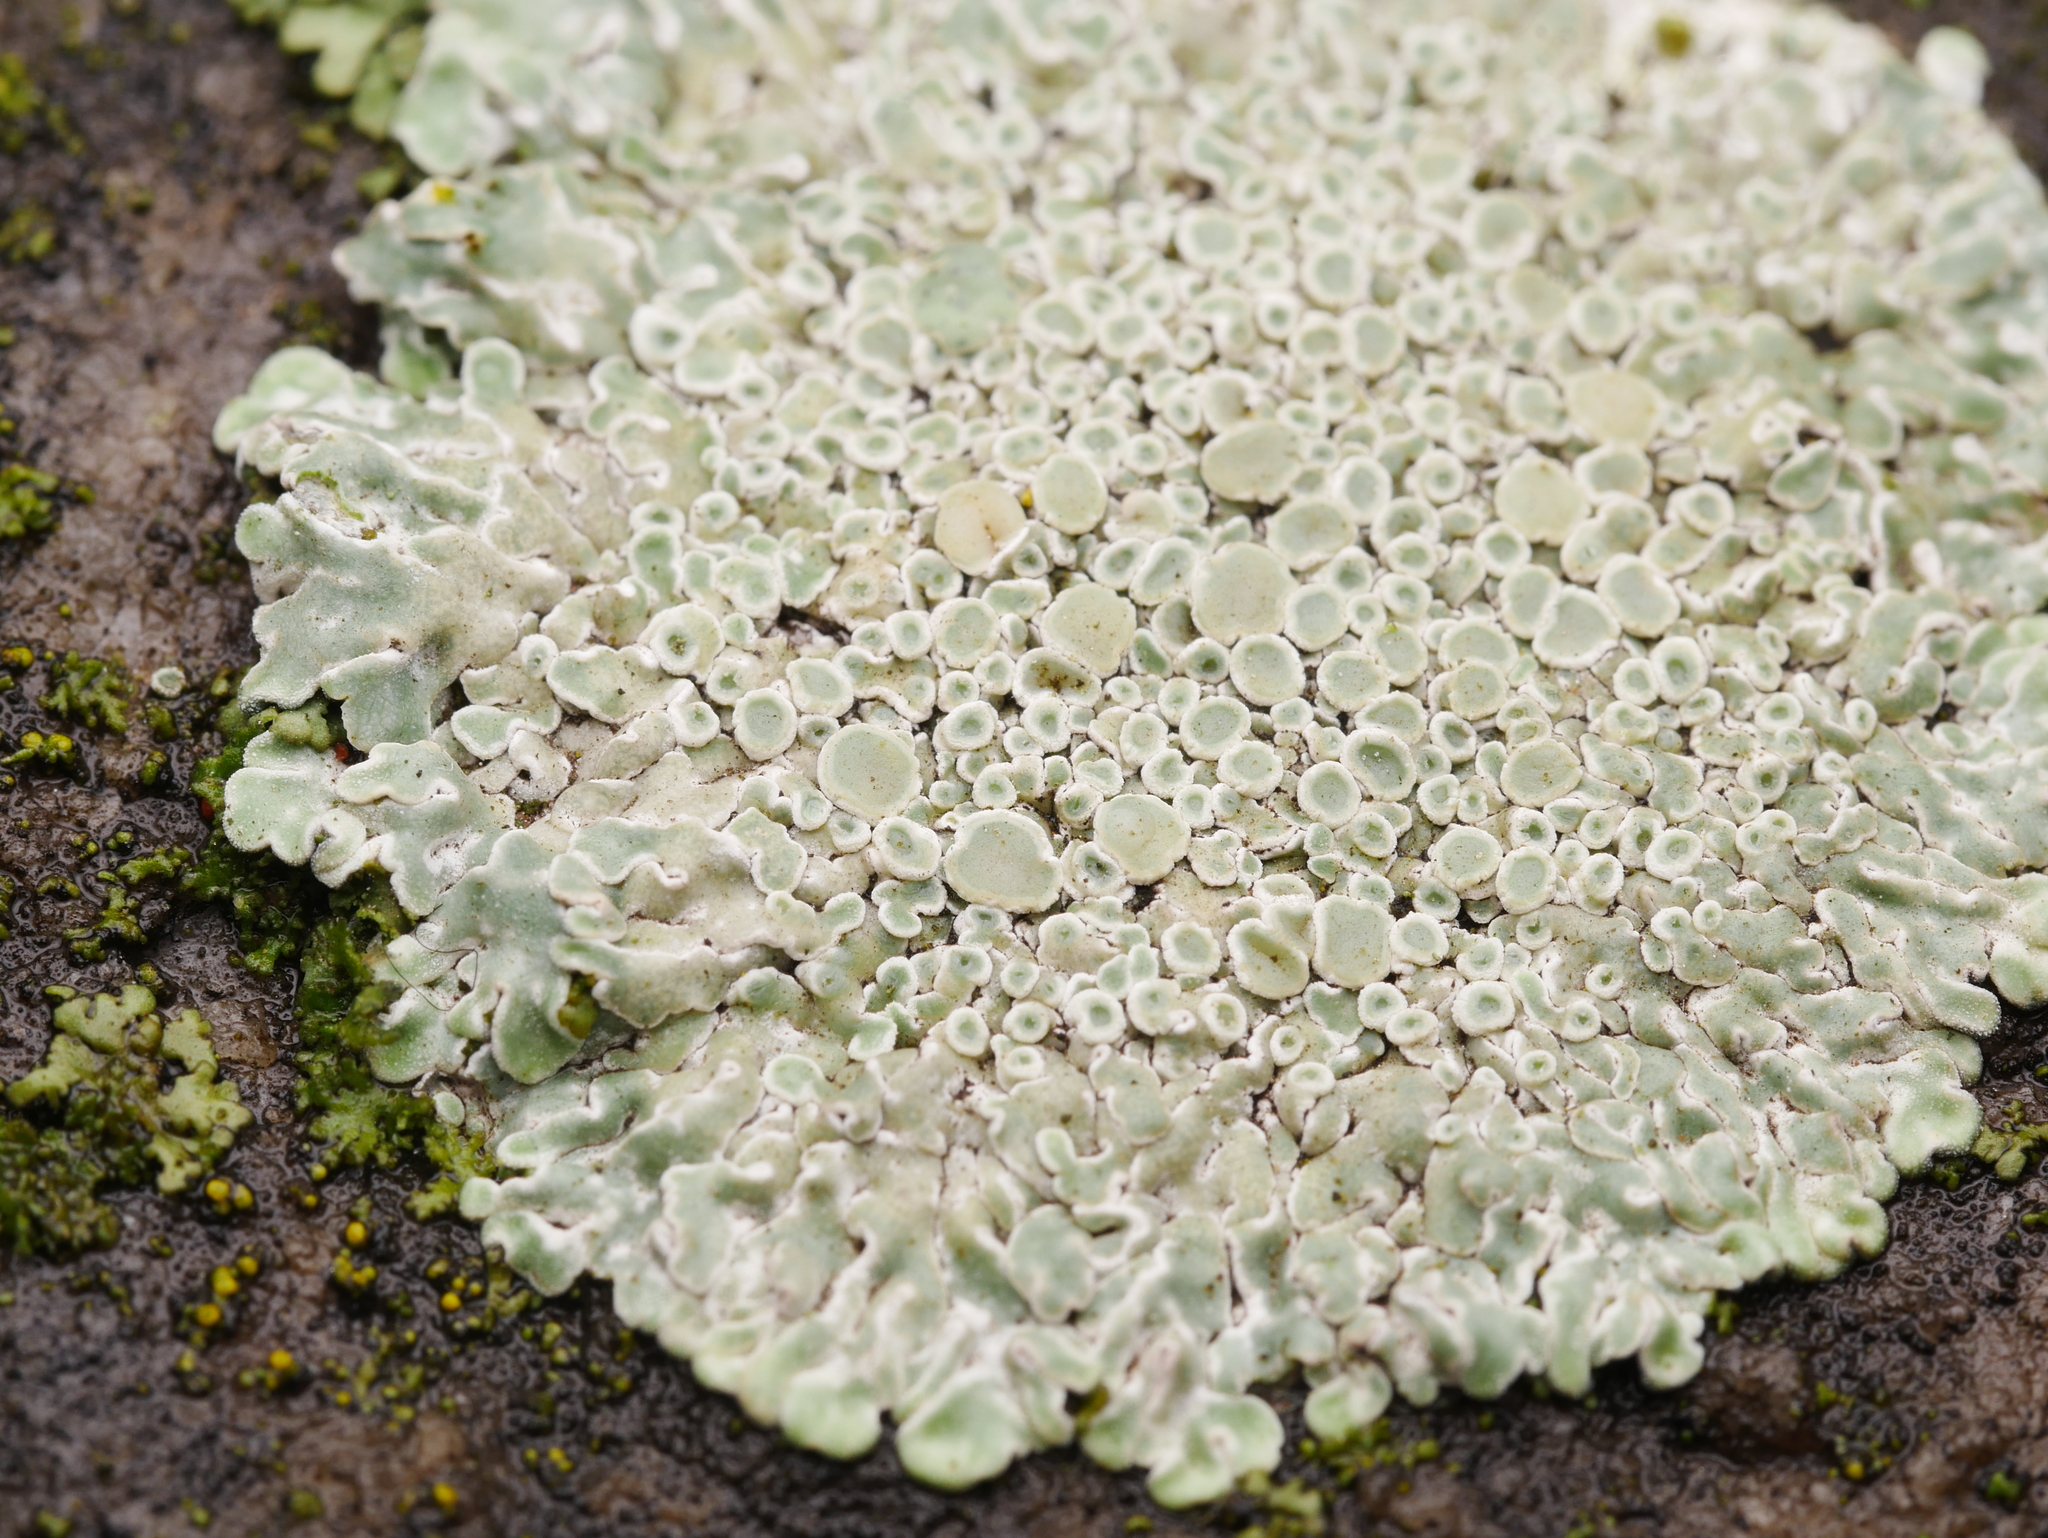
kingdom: Fungi
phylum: Ascomycota
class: Lecanoromycetes
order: Lecanorales
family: Lecanoraceae
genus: Protoparmeliopsis
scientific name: Protoparmeliopsis muralis
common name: Stonewall rim lichen
